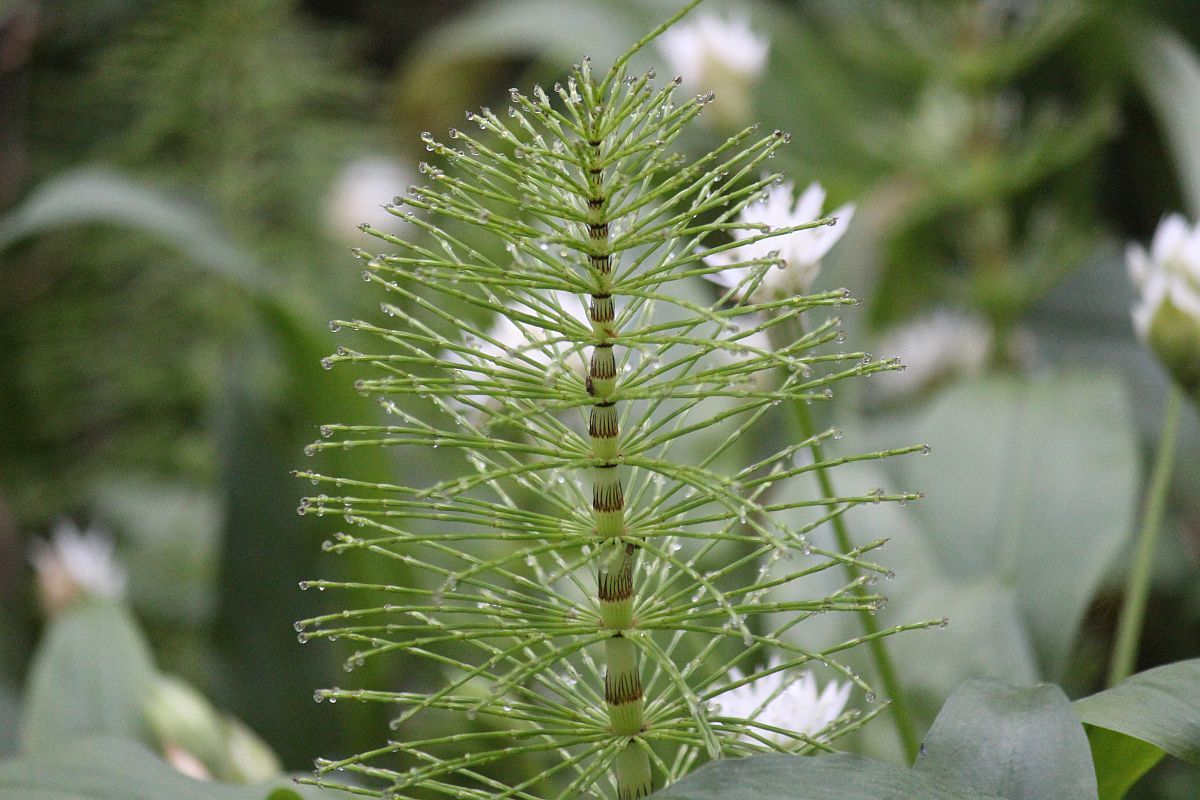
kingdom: Plantae
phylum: Tracheophyta
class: Polypodiopsida
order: Equisetales
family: Equisetaceae
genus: Equisetum
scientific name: Equisetum telmateia
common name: Great horsetail
